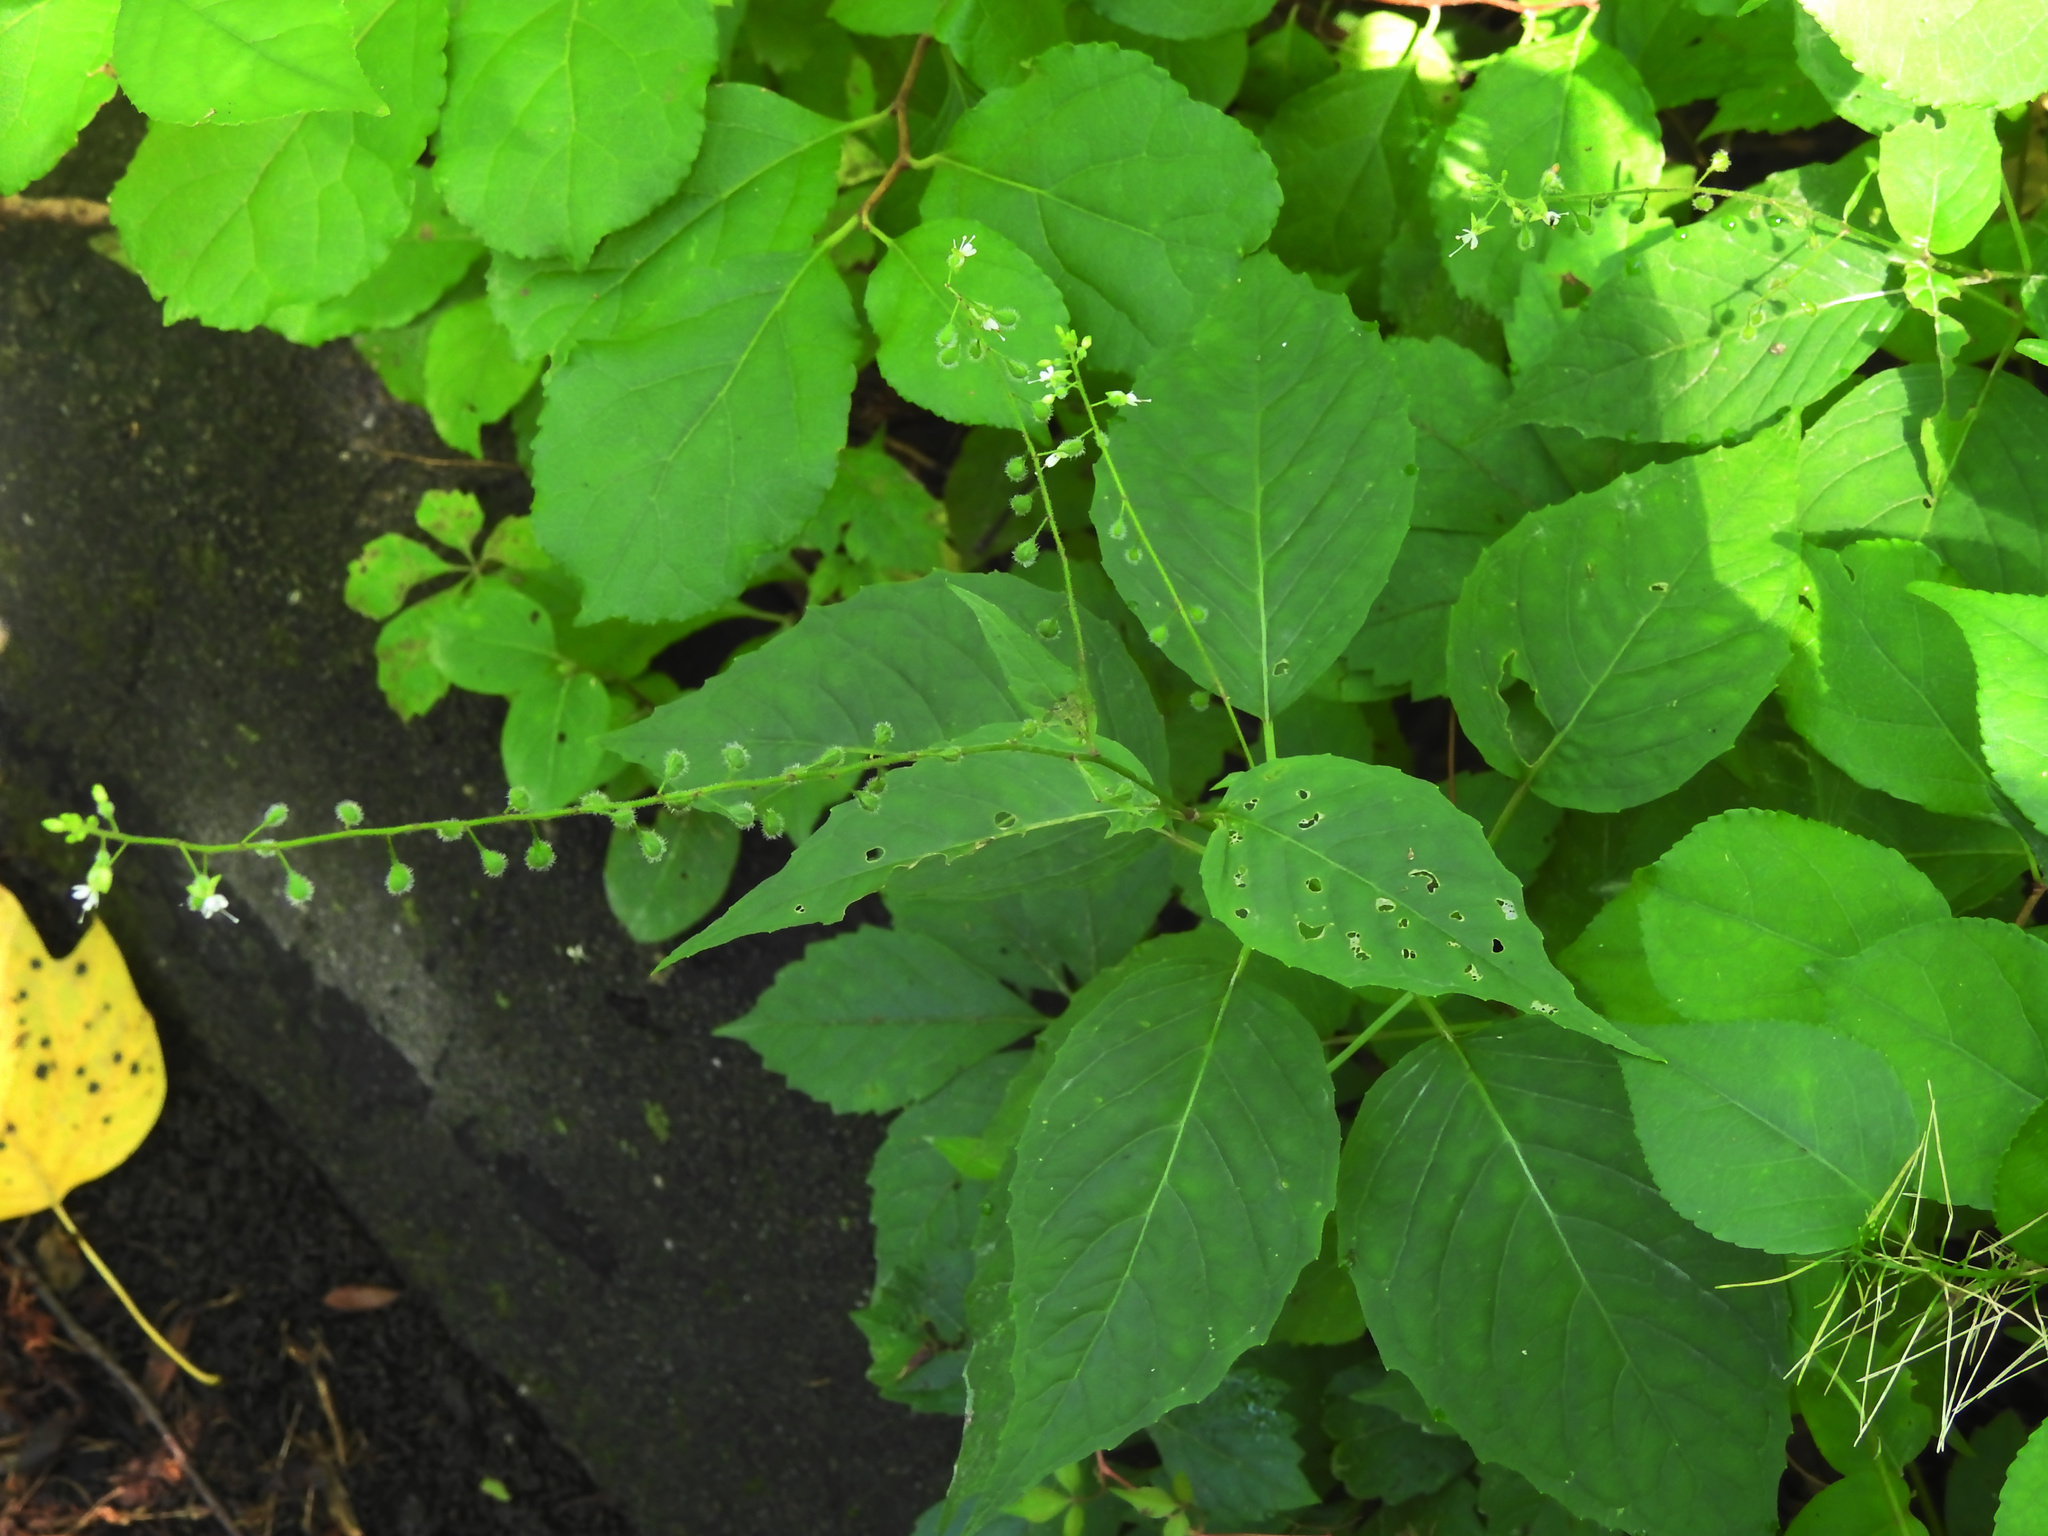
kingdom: Plantae
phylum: Tracheophyta
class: Magnoliopsida
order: Myrtales
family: Onagraceae
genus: Circaea
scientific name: Circaea canadensis
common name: Broad-leaved enchanter's nightshade
